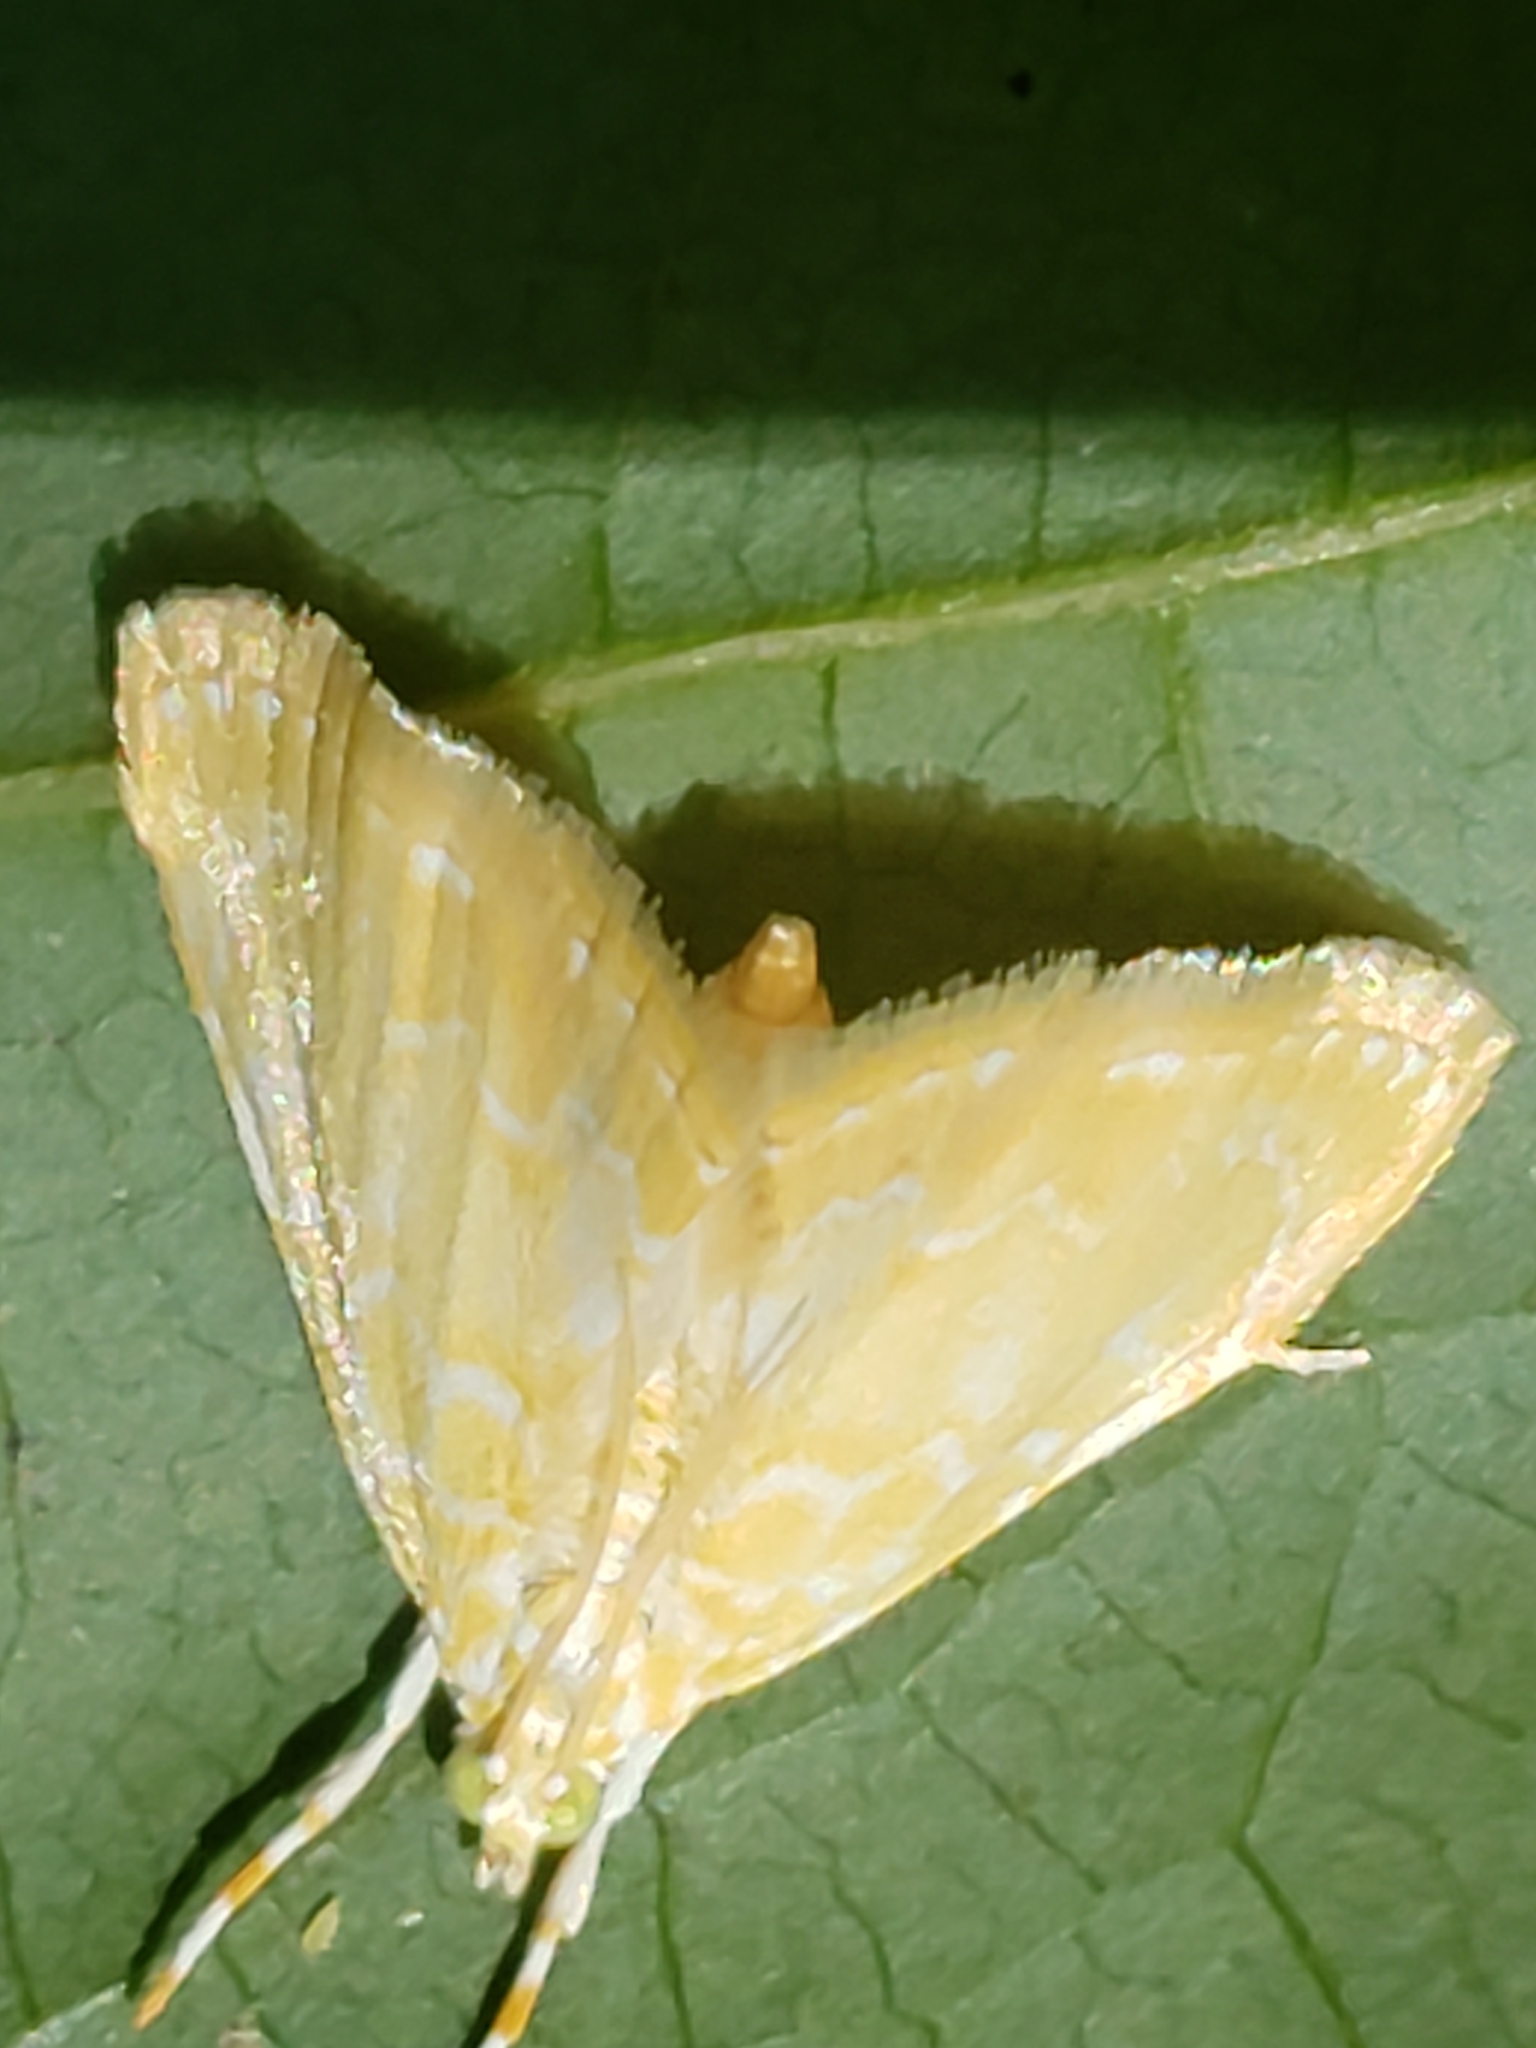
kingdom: Animalia
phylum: Arthropoda
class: Insecta
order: Lepidoptera
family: Crambidae
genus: Glaphyria
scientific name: Glaphyria glaphyralis
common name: Common glaphyria moth
